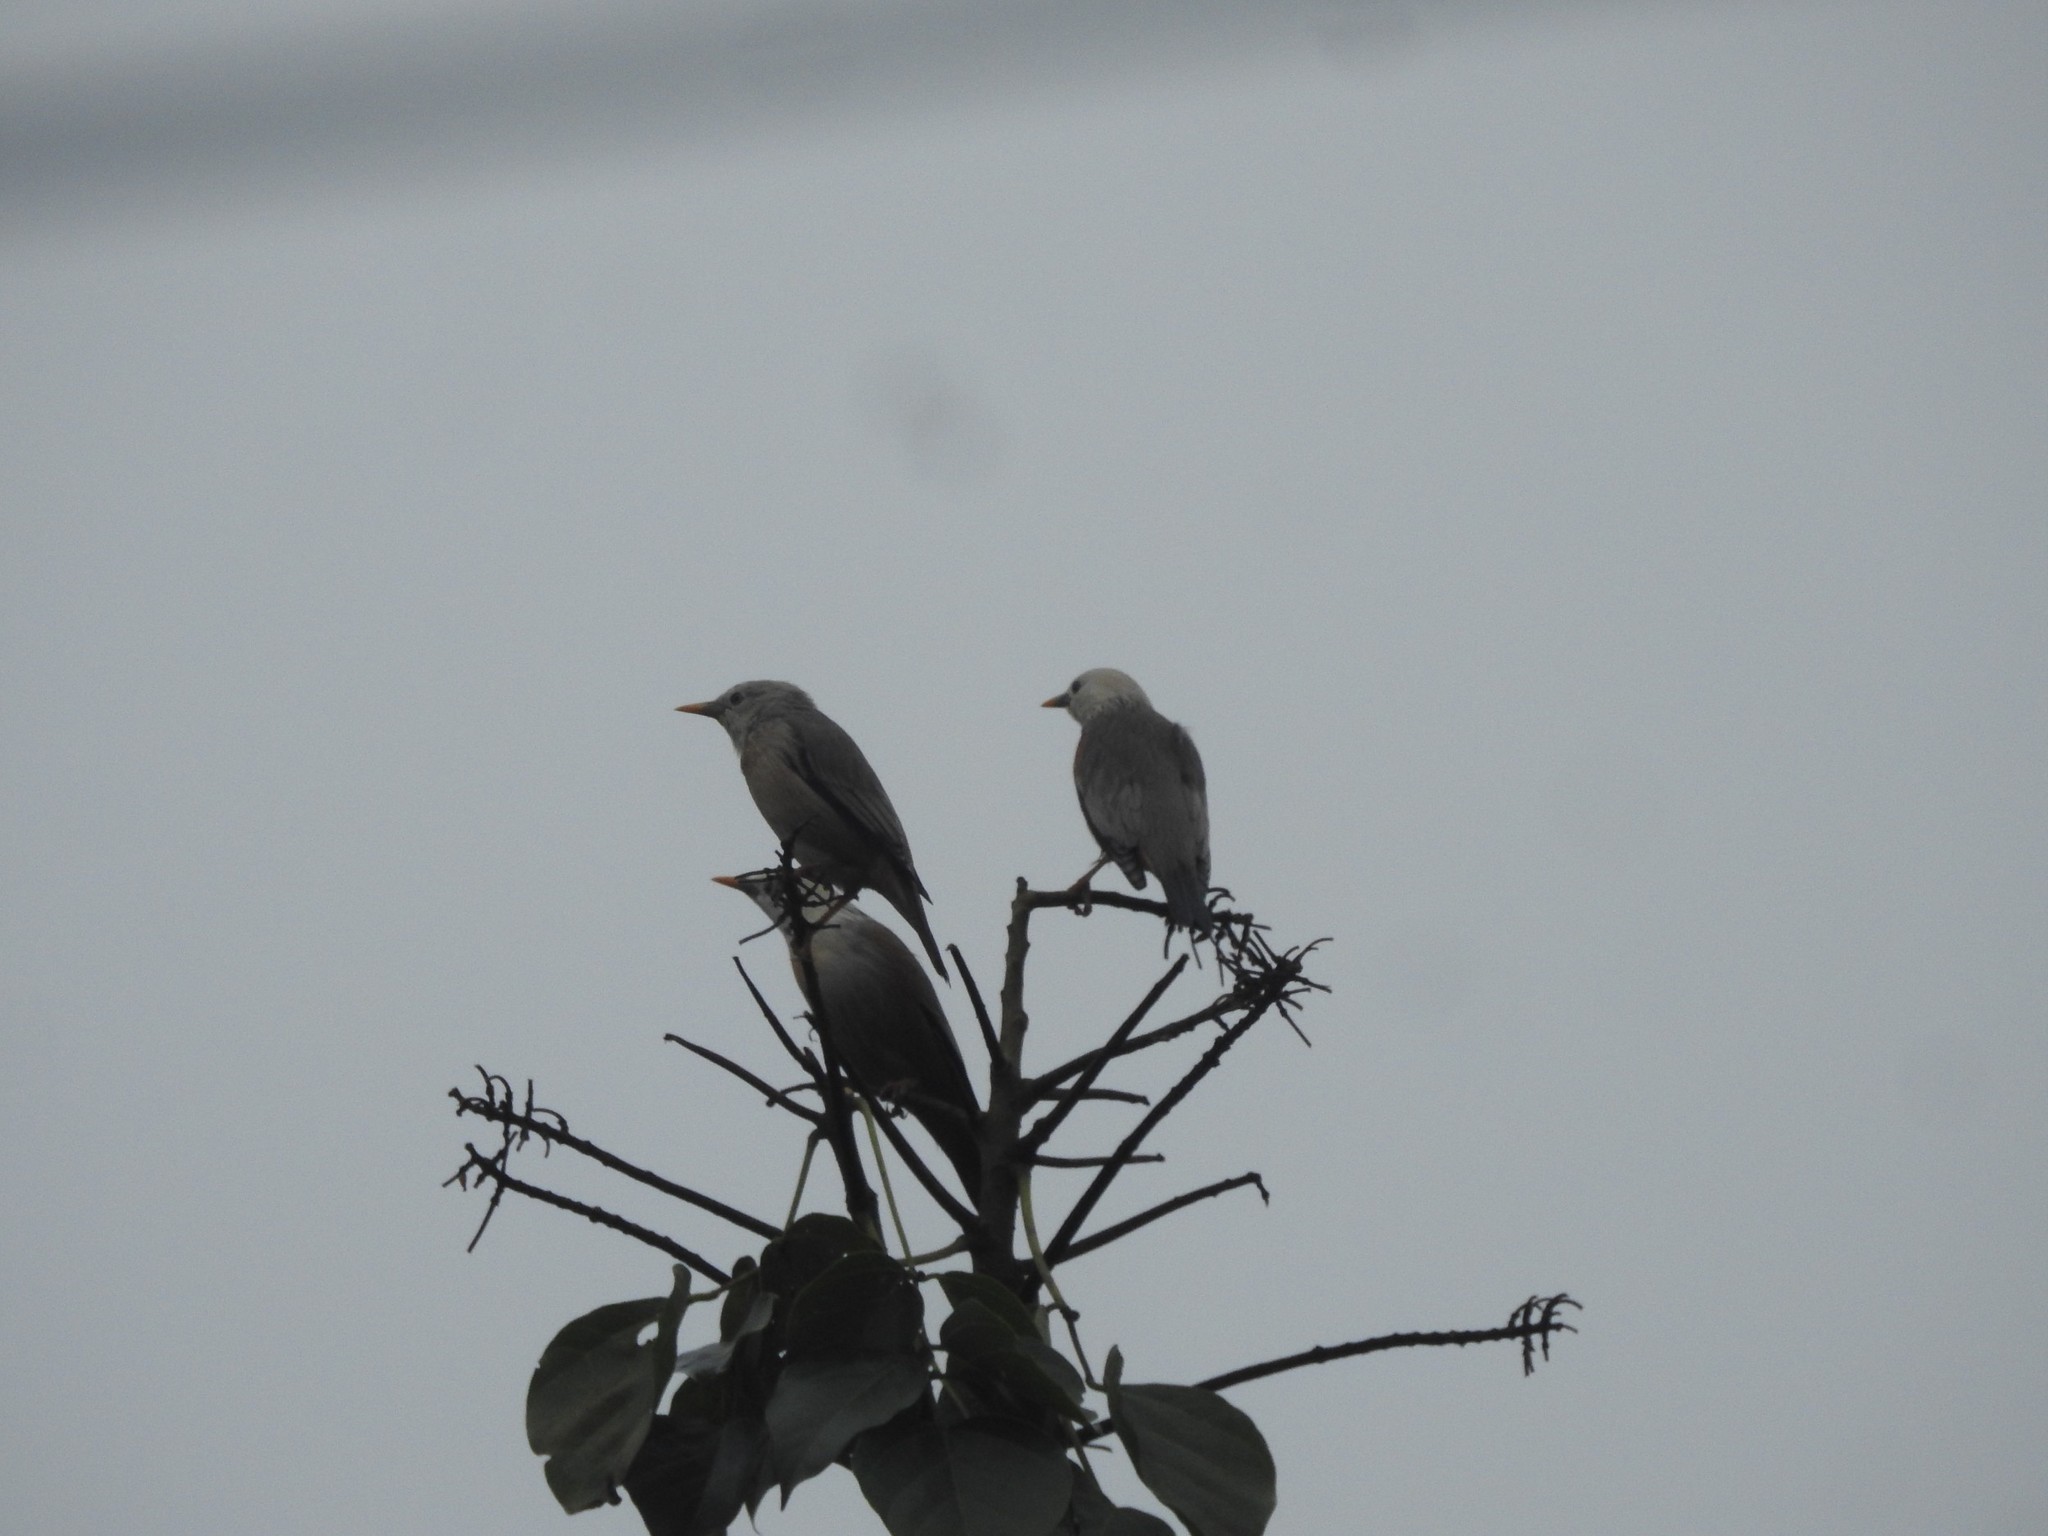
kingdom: Animalia
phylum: Chordata
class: Aves
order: Passeriformes
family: Sturnidae
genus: Sturnia
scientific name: Sturnia blythii
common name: Malabar starling
